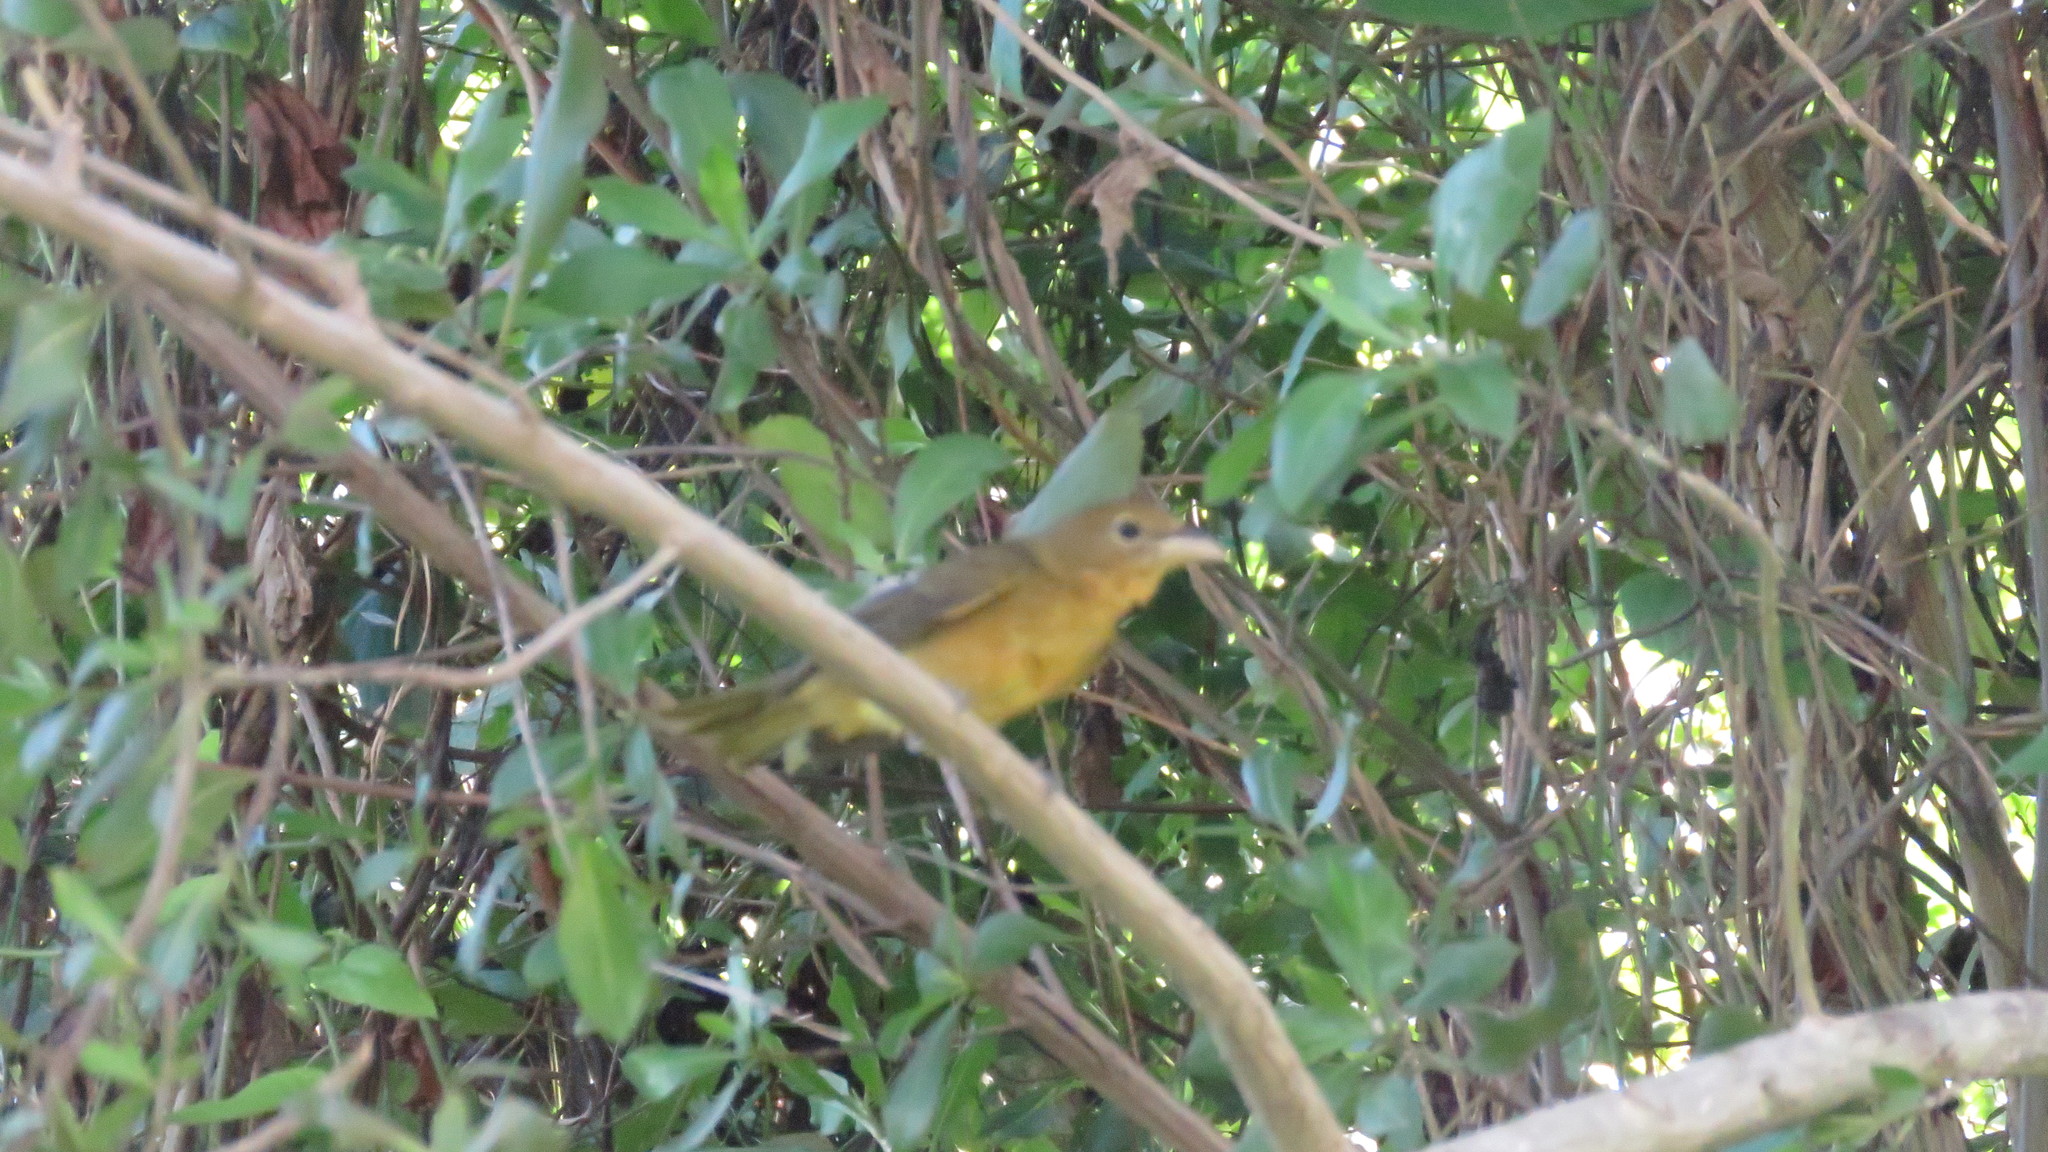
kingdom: Animalia
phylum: Chordata
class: Aves
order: Passeriformes
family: Cardinalidae
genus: Piranga
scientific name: Piranga rubra
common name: Summer tanager
